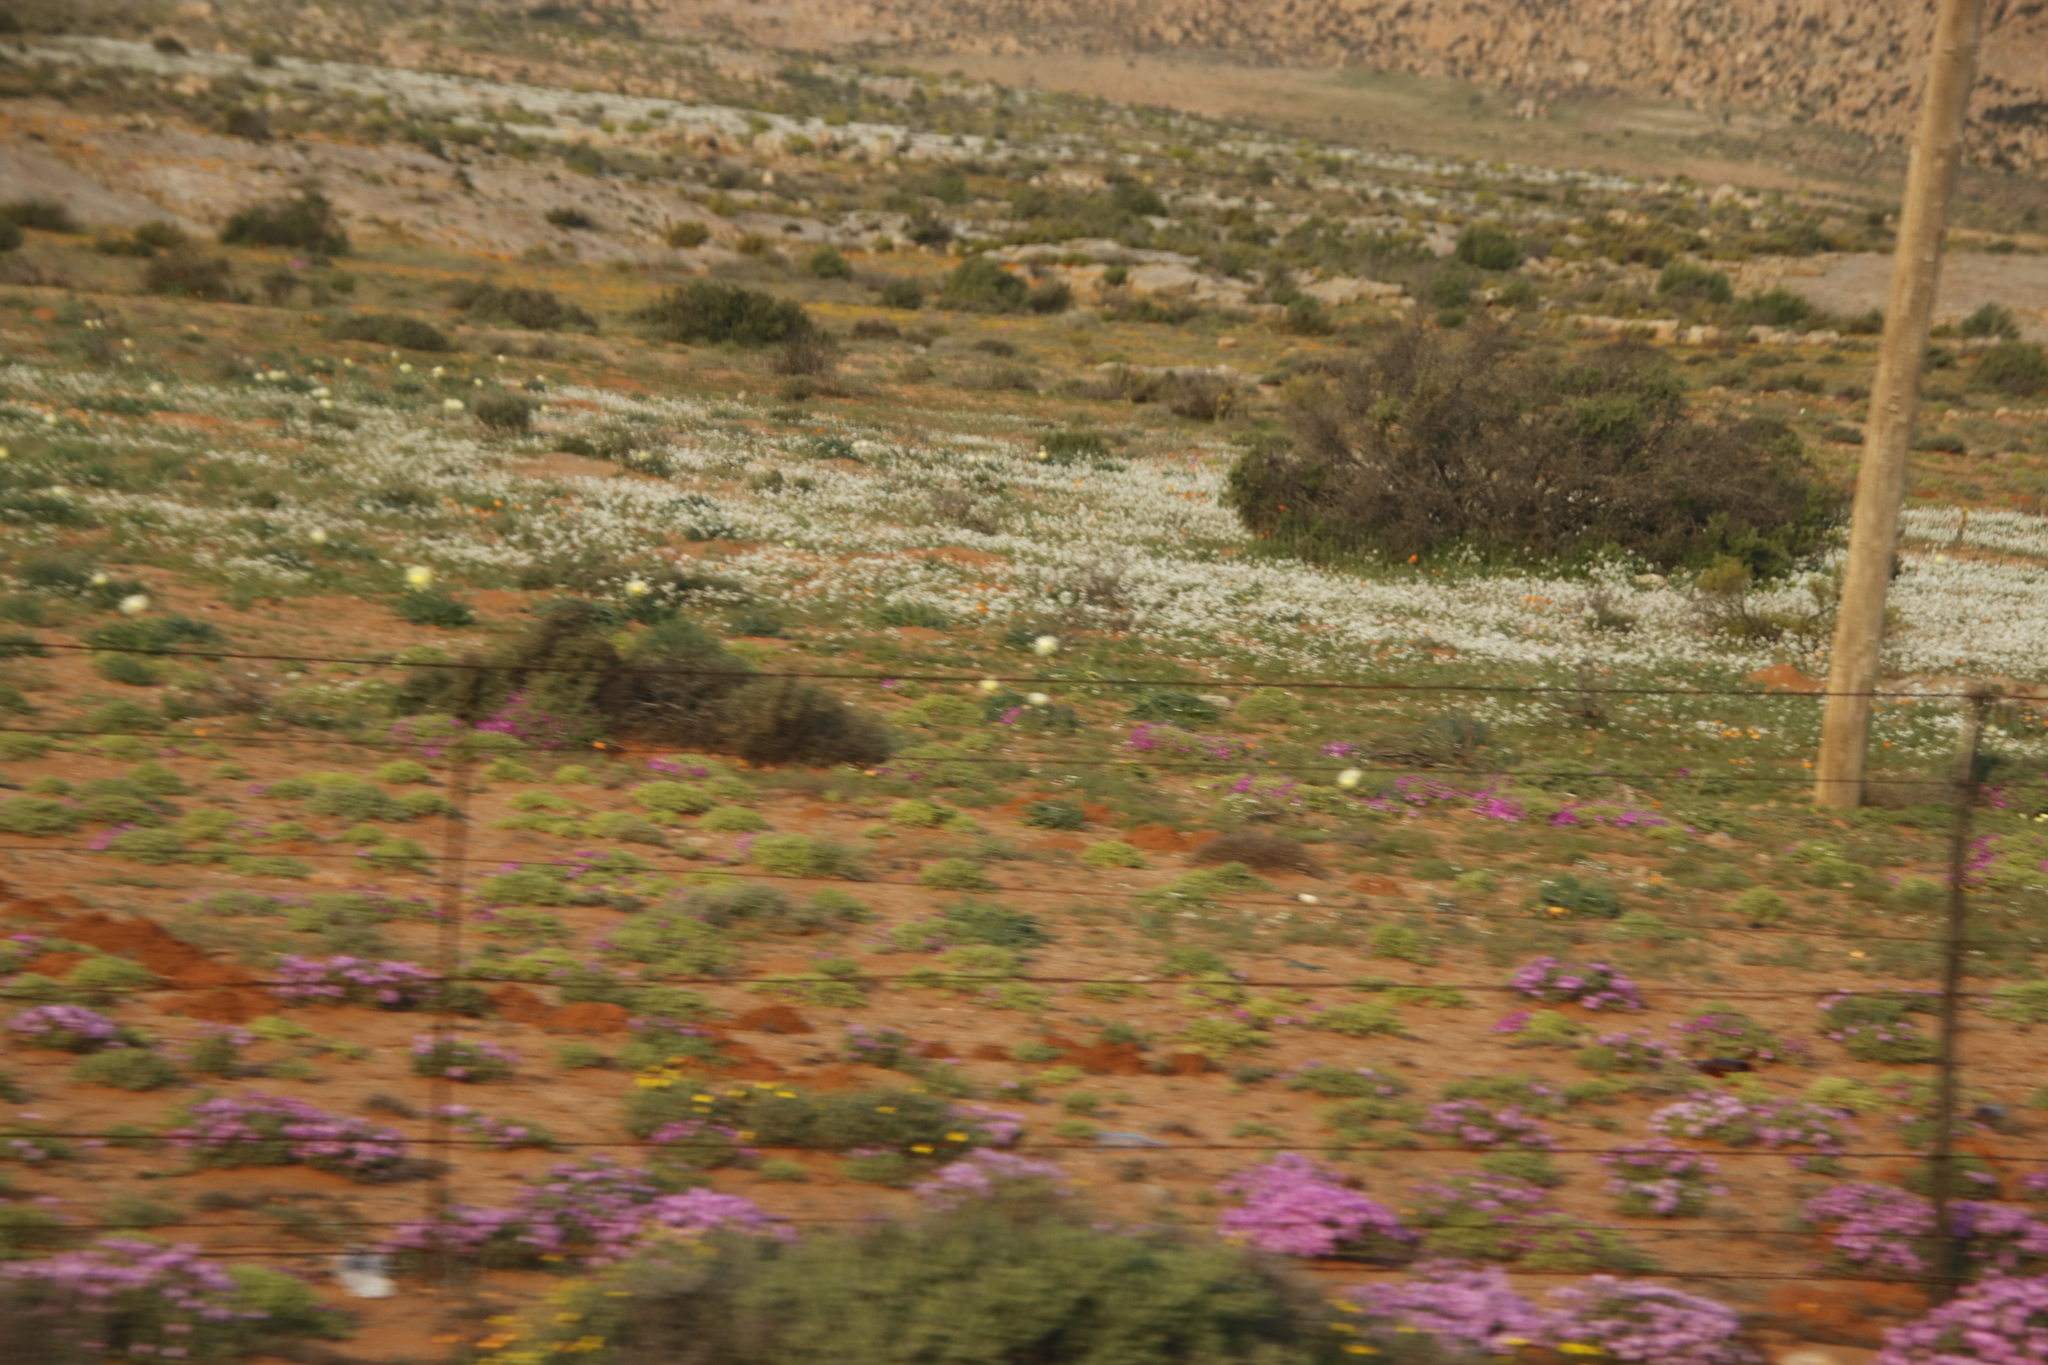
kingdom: Plantae
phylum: Tracheophyta
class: Magnoliopsida
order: Brassicales
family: Brassicaceae
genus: Heliophila
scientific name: Heliophila variabilis
